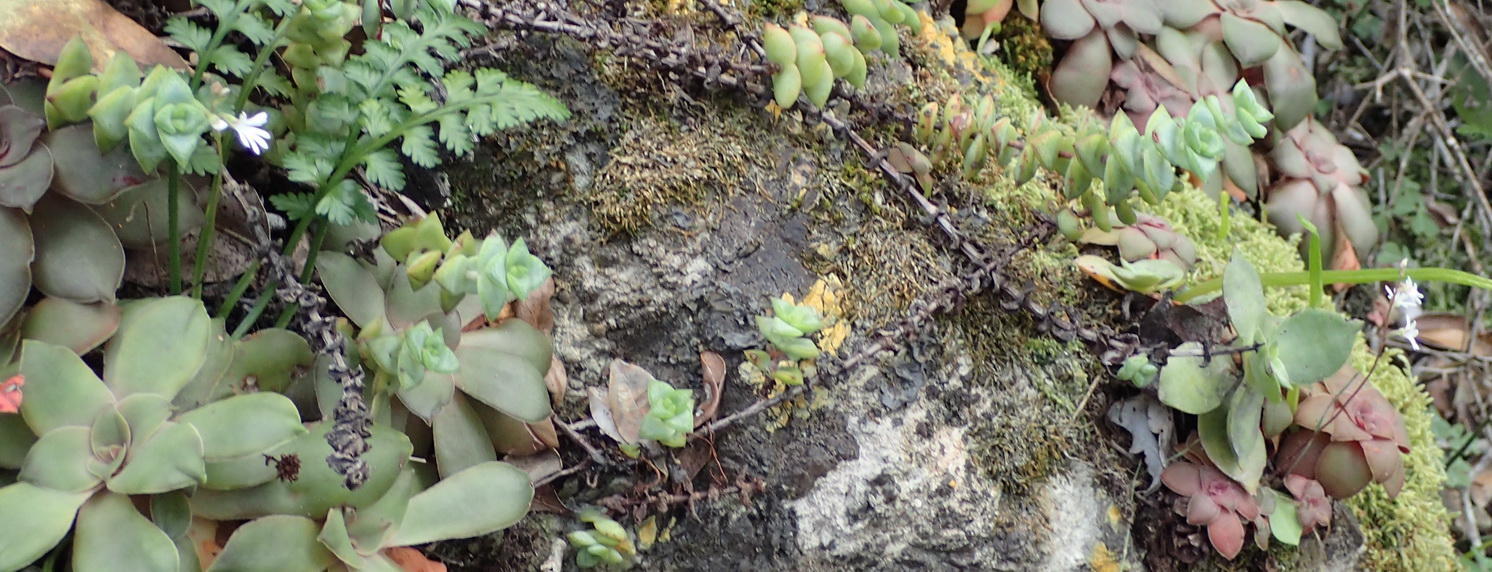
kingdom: Plantae
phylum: Tracheophyta
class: Liliopsida
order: Asparagales
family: Orchidaceae
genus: Holothrix
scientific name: Holothrix parviflora
